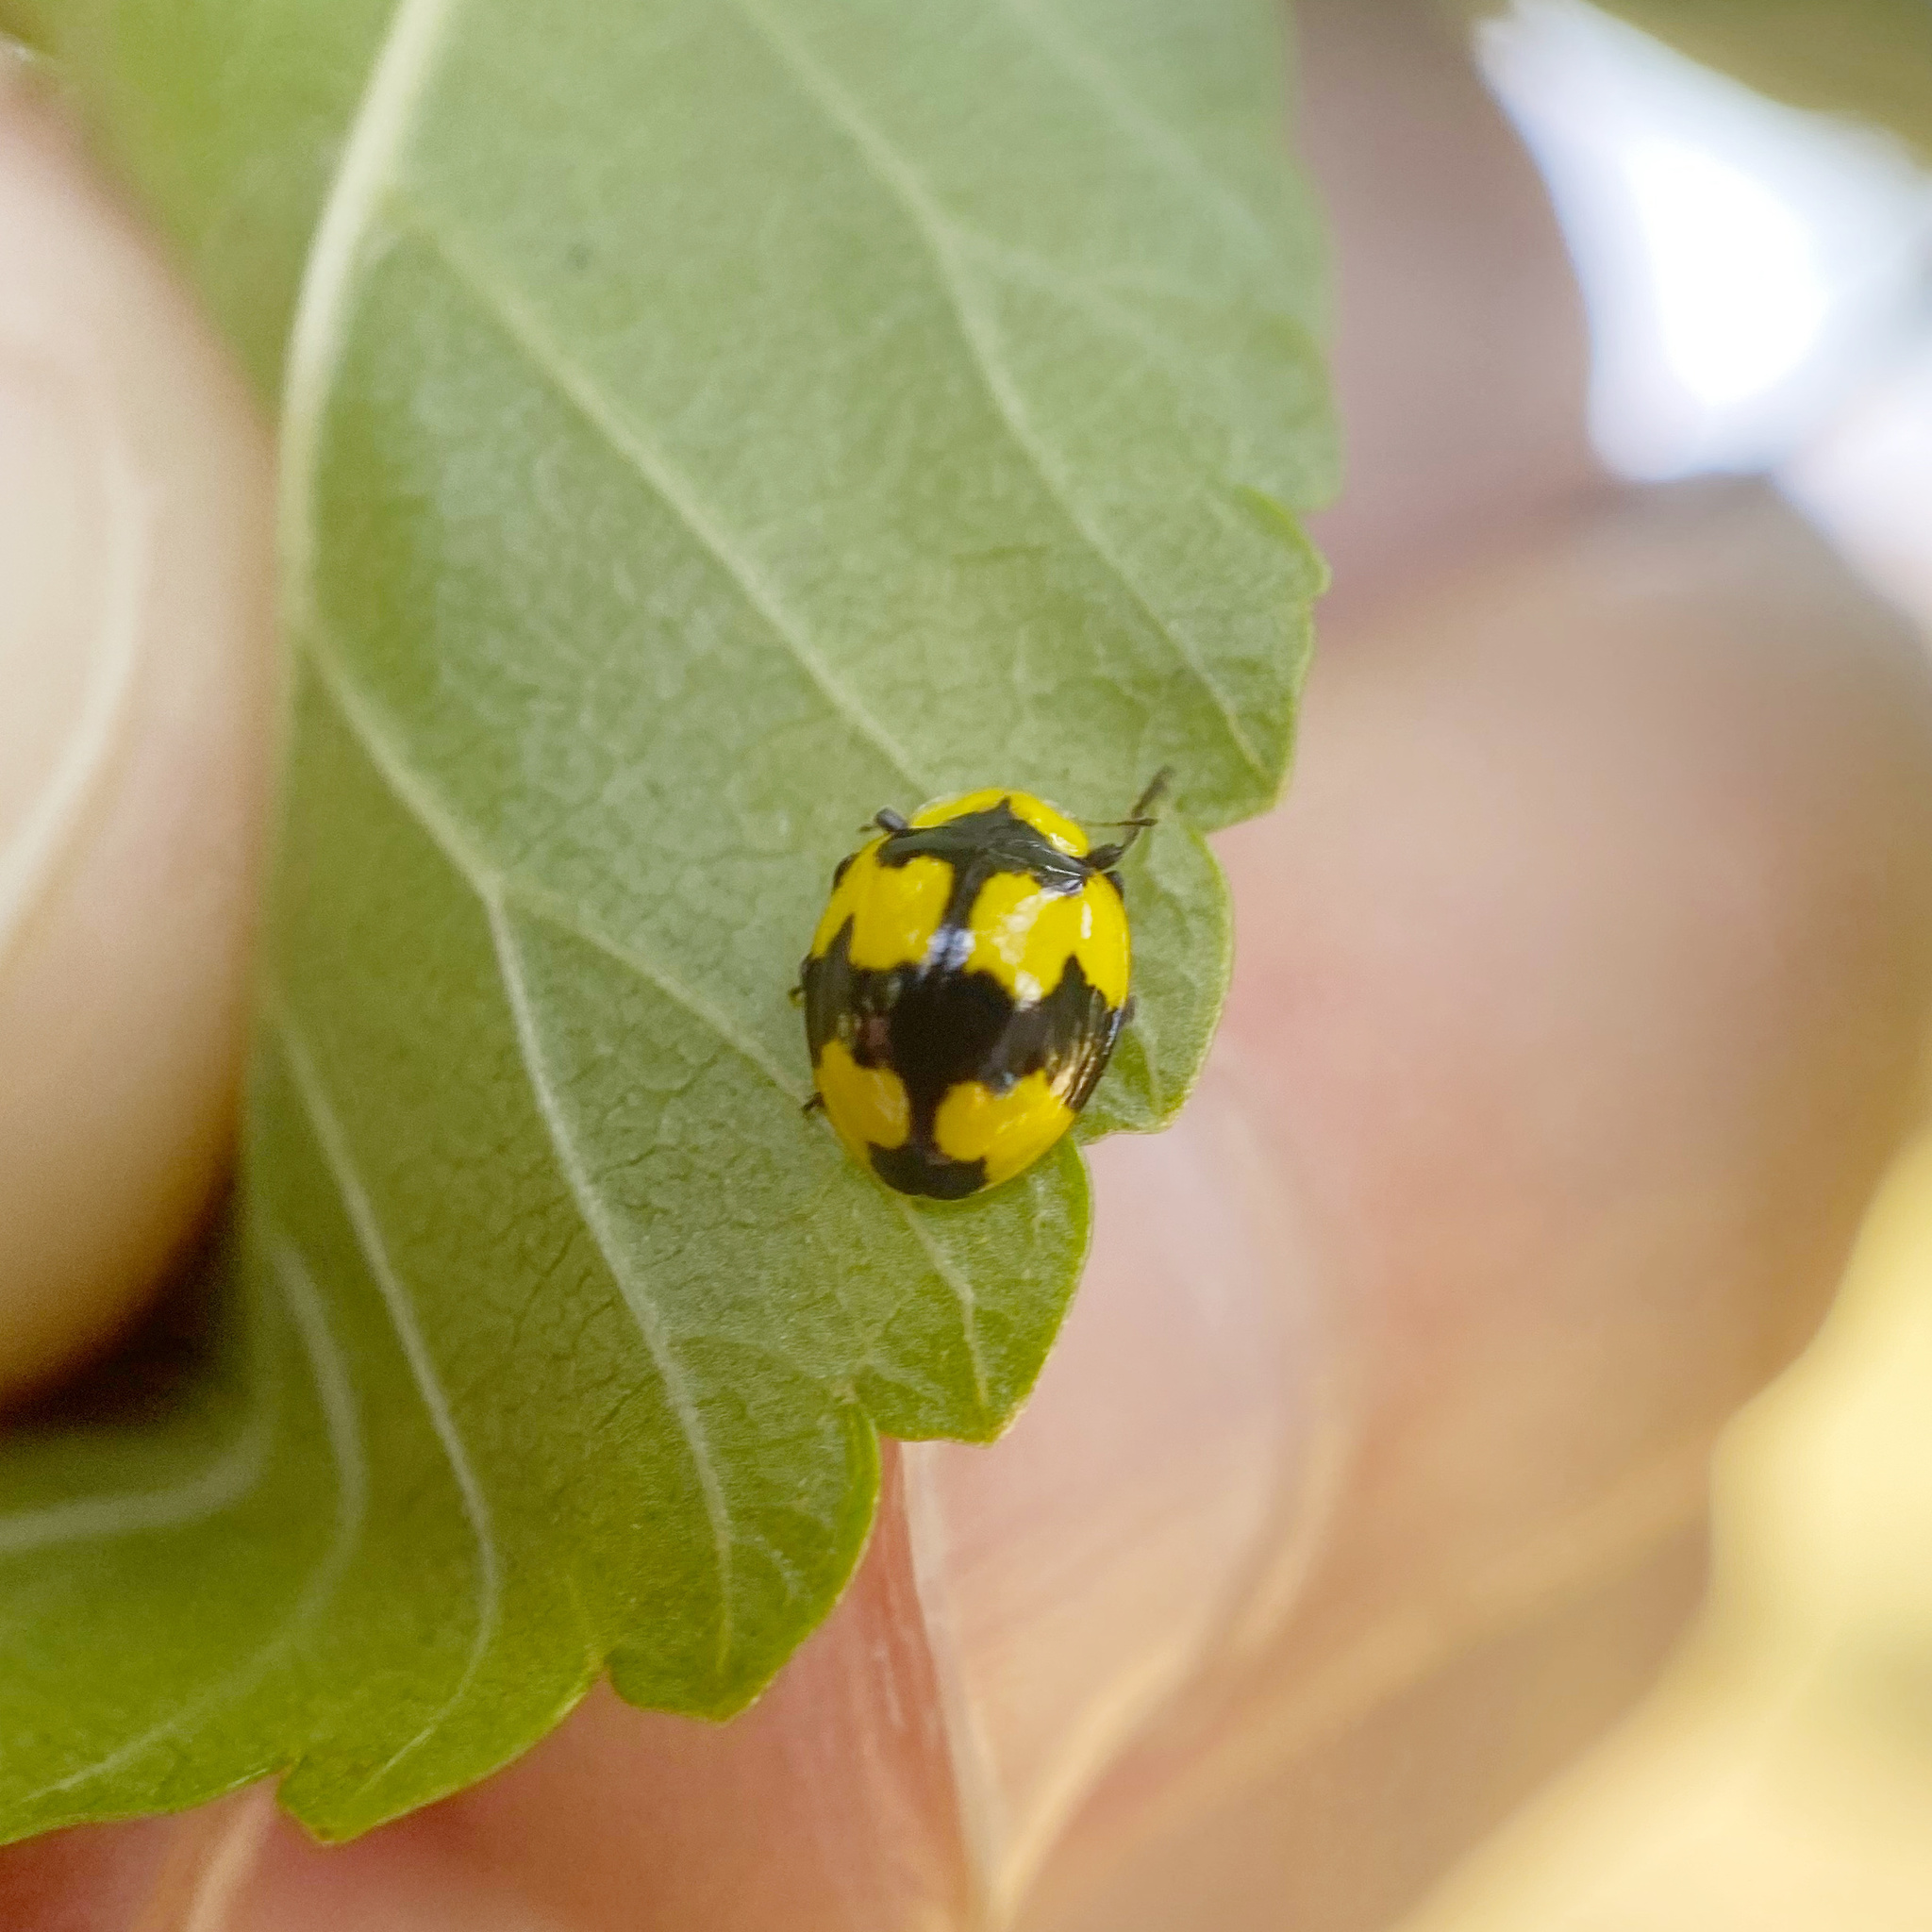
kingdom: Animalia
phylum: Arthropoda
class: Insecta
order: Coleoptera
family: Coccinellidae
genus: Illeis
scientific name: Illeis galbula
